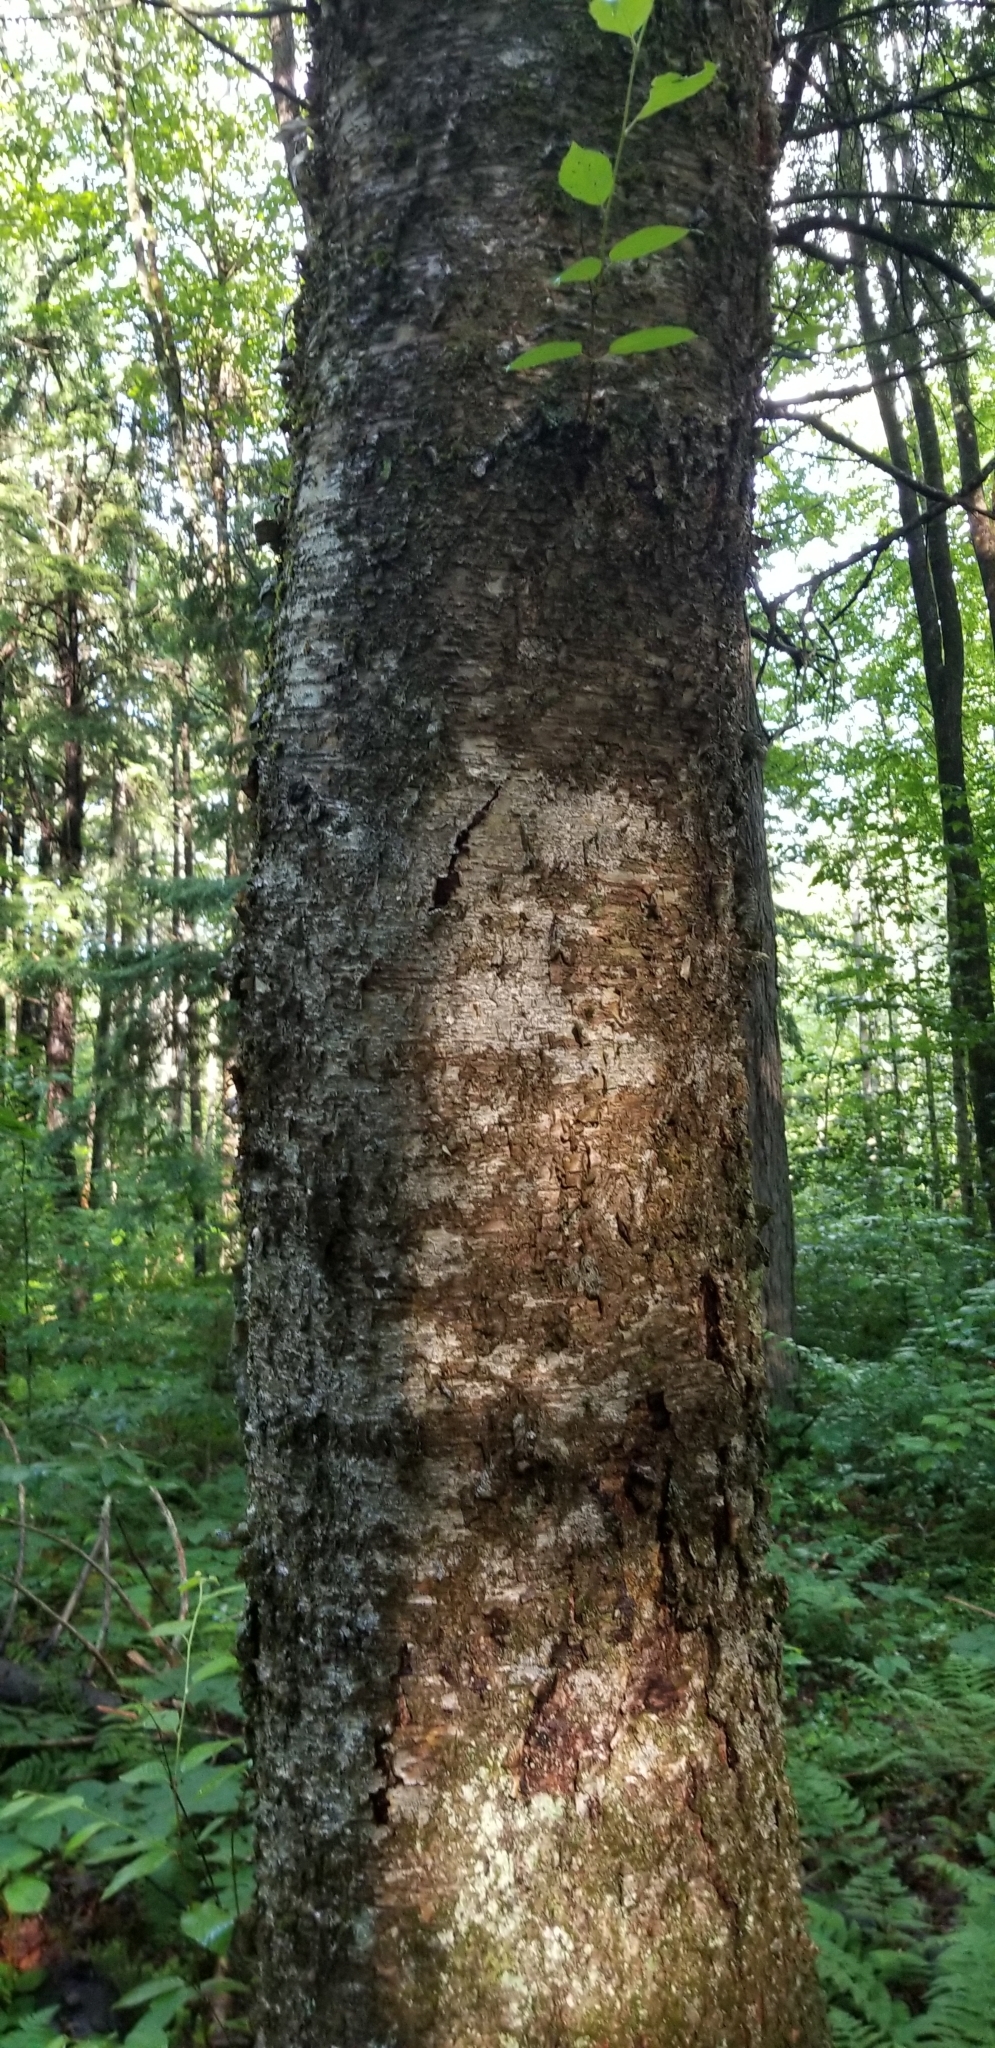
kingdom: Plantae
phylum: Tracheophyta
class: Magnoliopsida
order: Fagales
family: Betulaceae
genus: Betula
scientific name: Betula alleghaniensis
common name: Yellow birch
